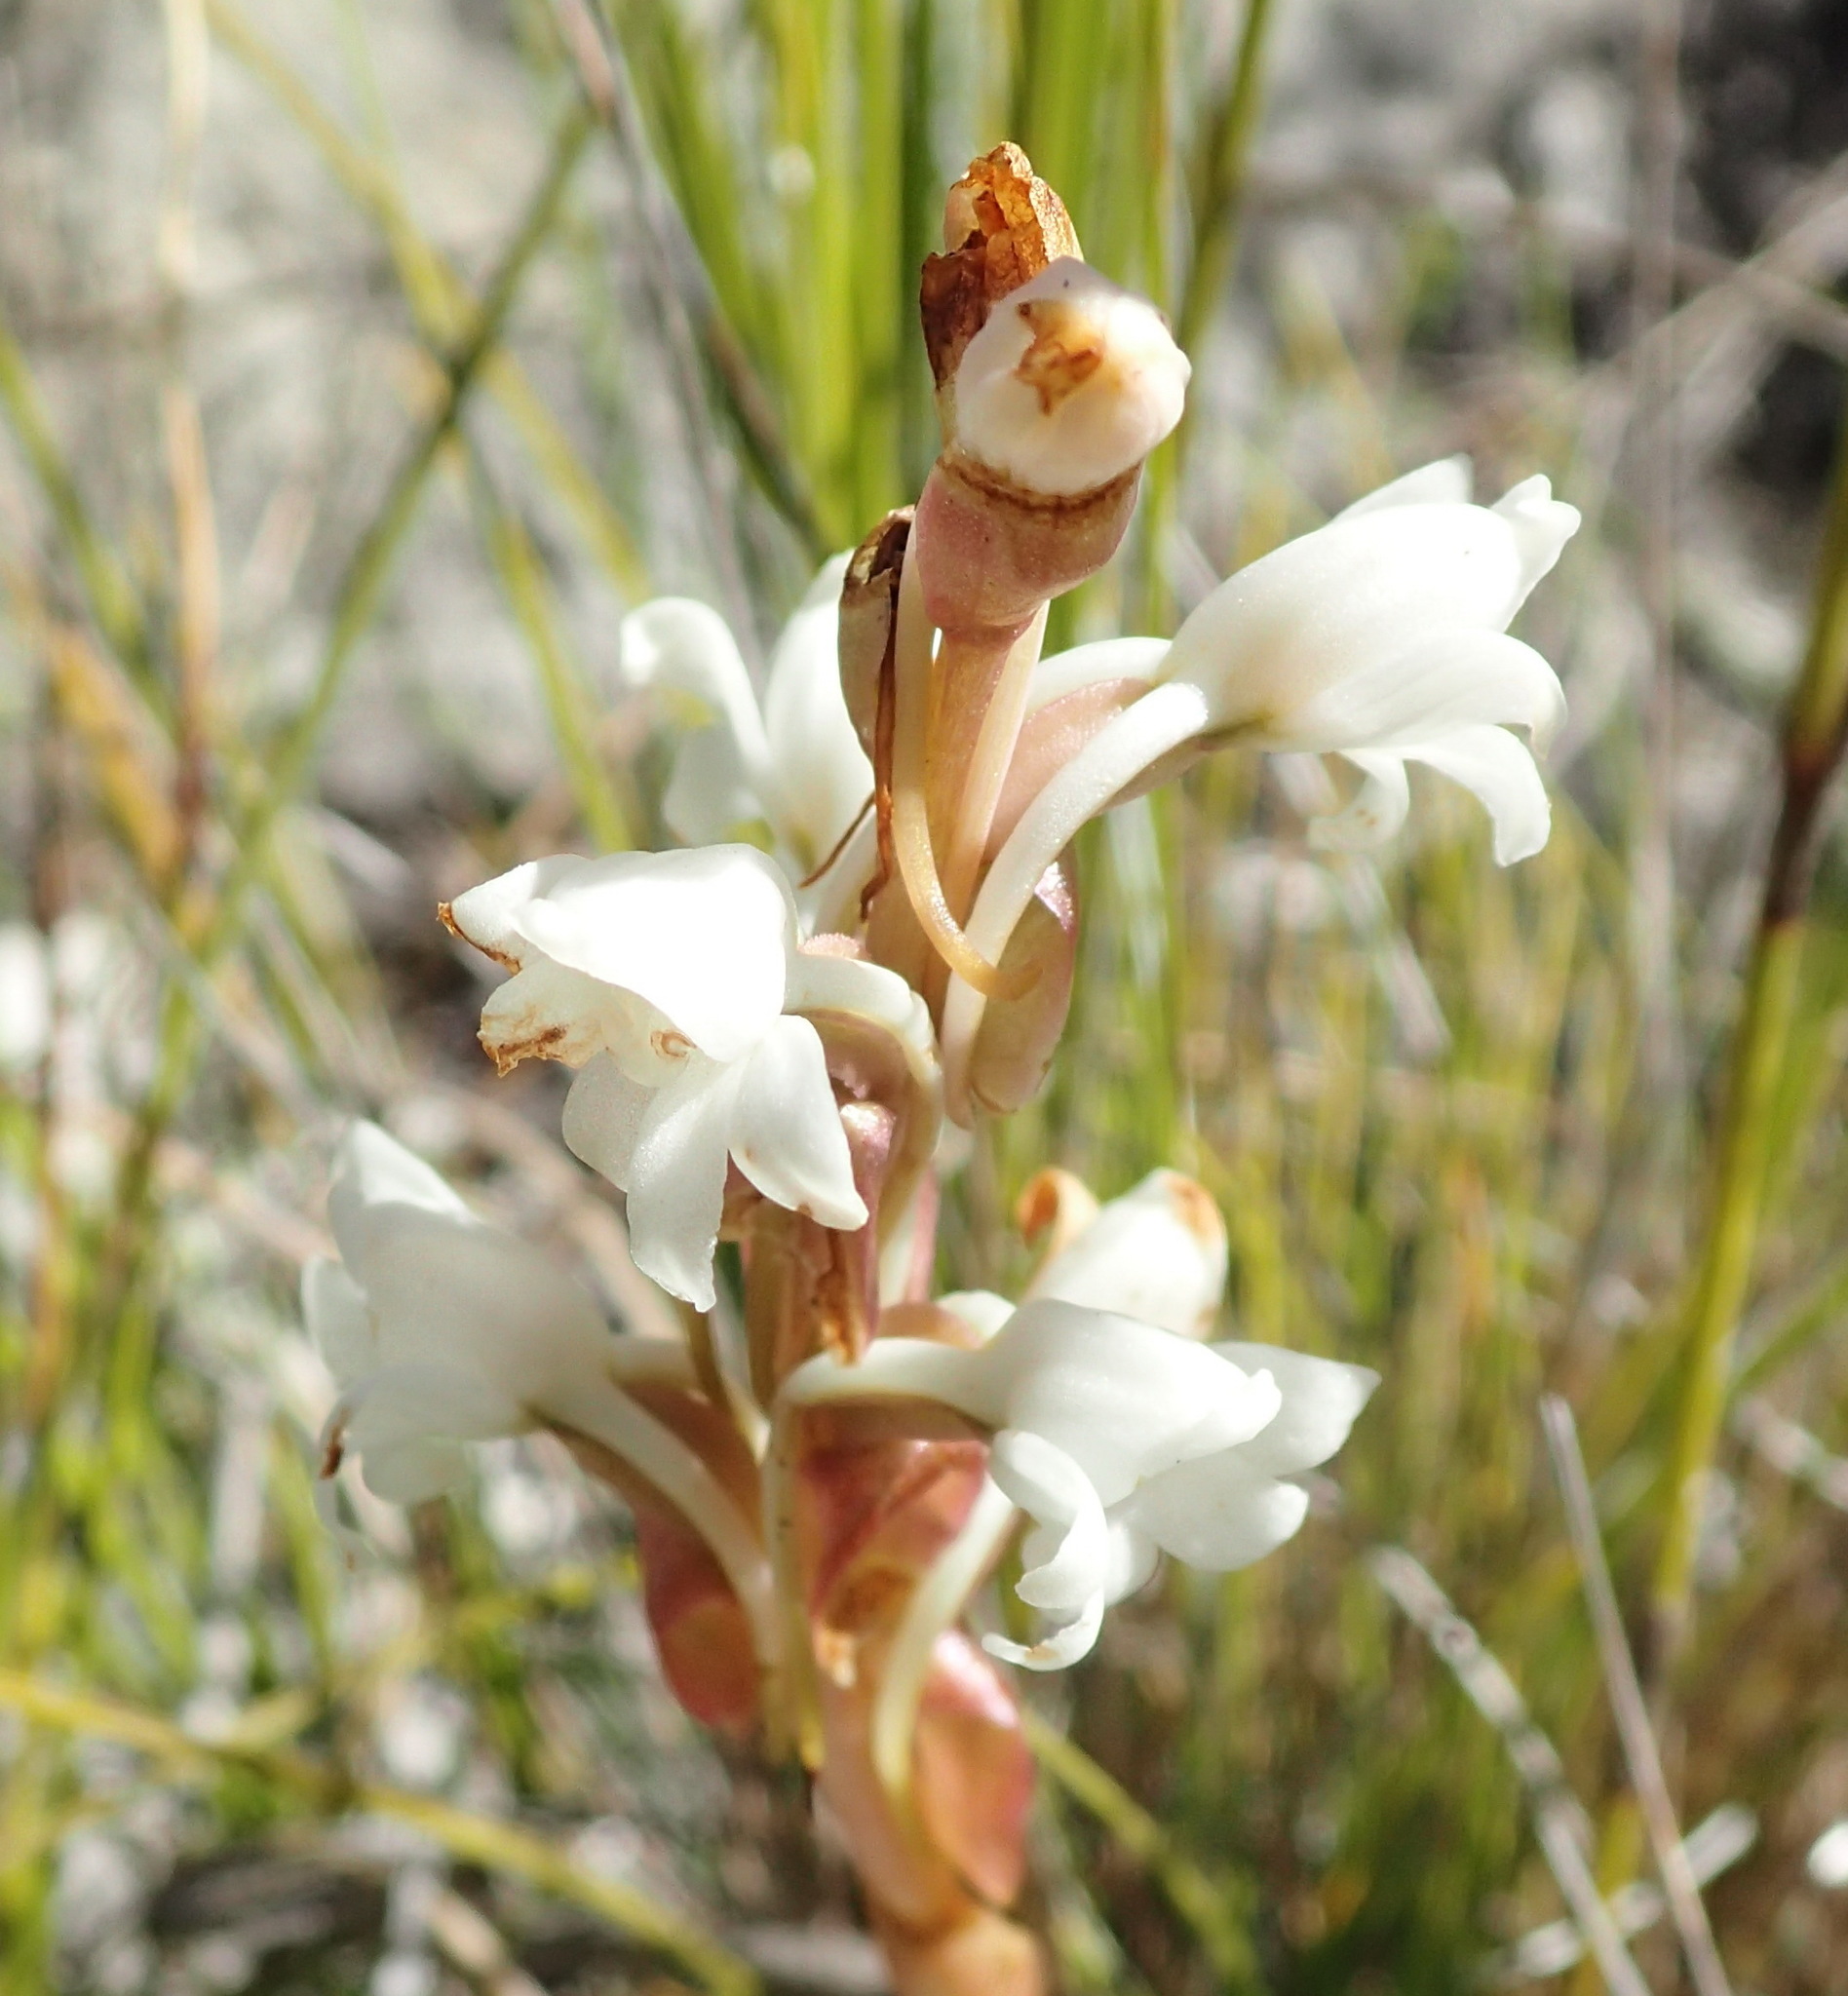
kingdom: Plantae
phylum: Tracheophyta
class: Liliopsida
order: Asparagales
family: Orchidaceae
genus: Satyrium
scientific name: Satyrium acuminatum
